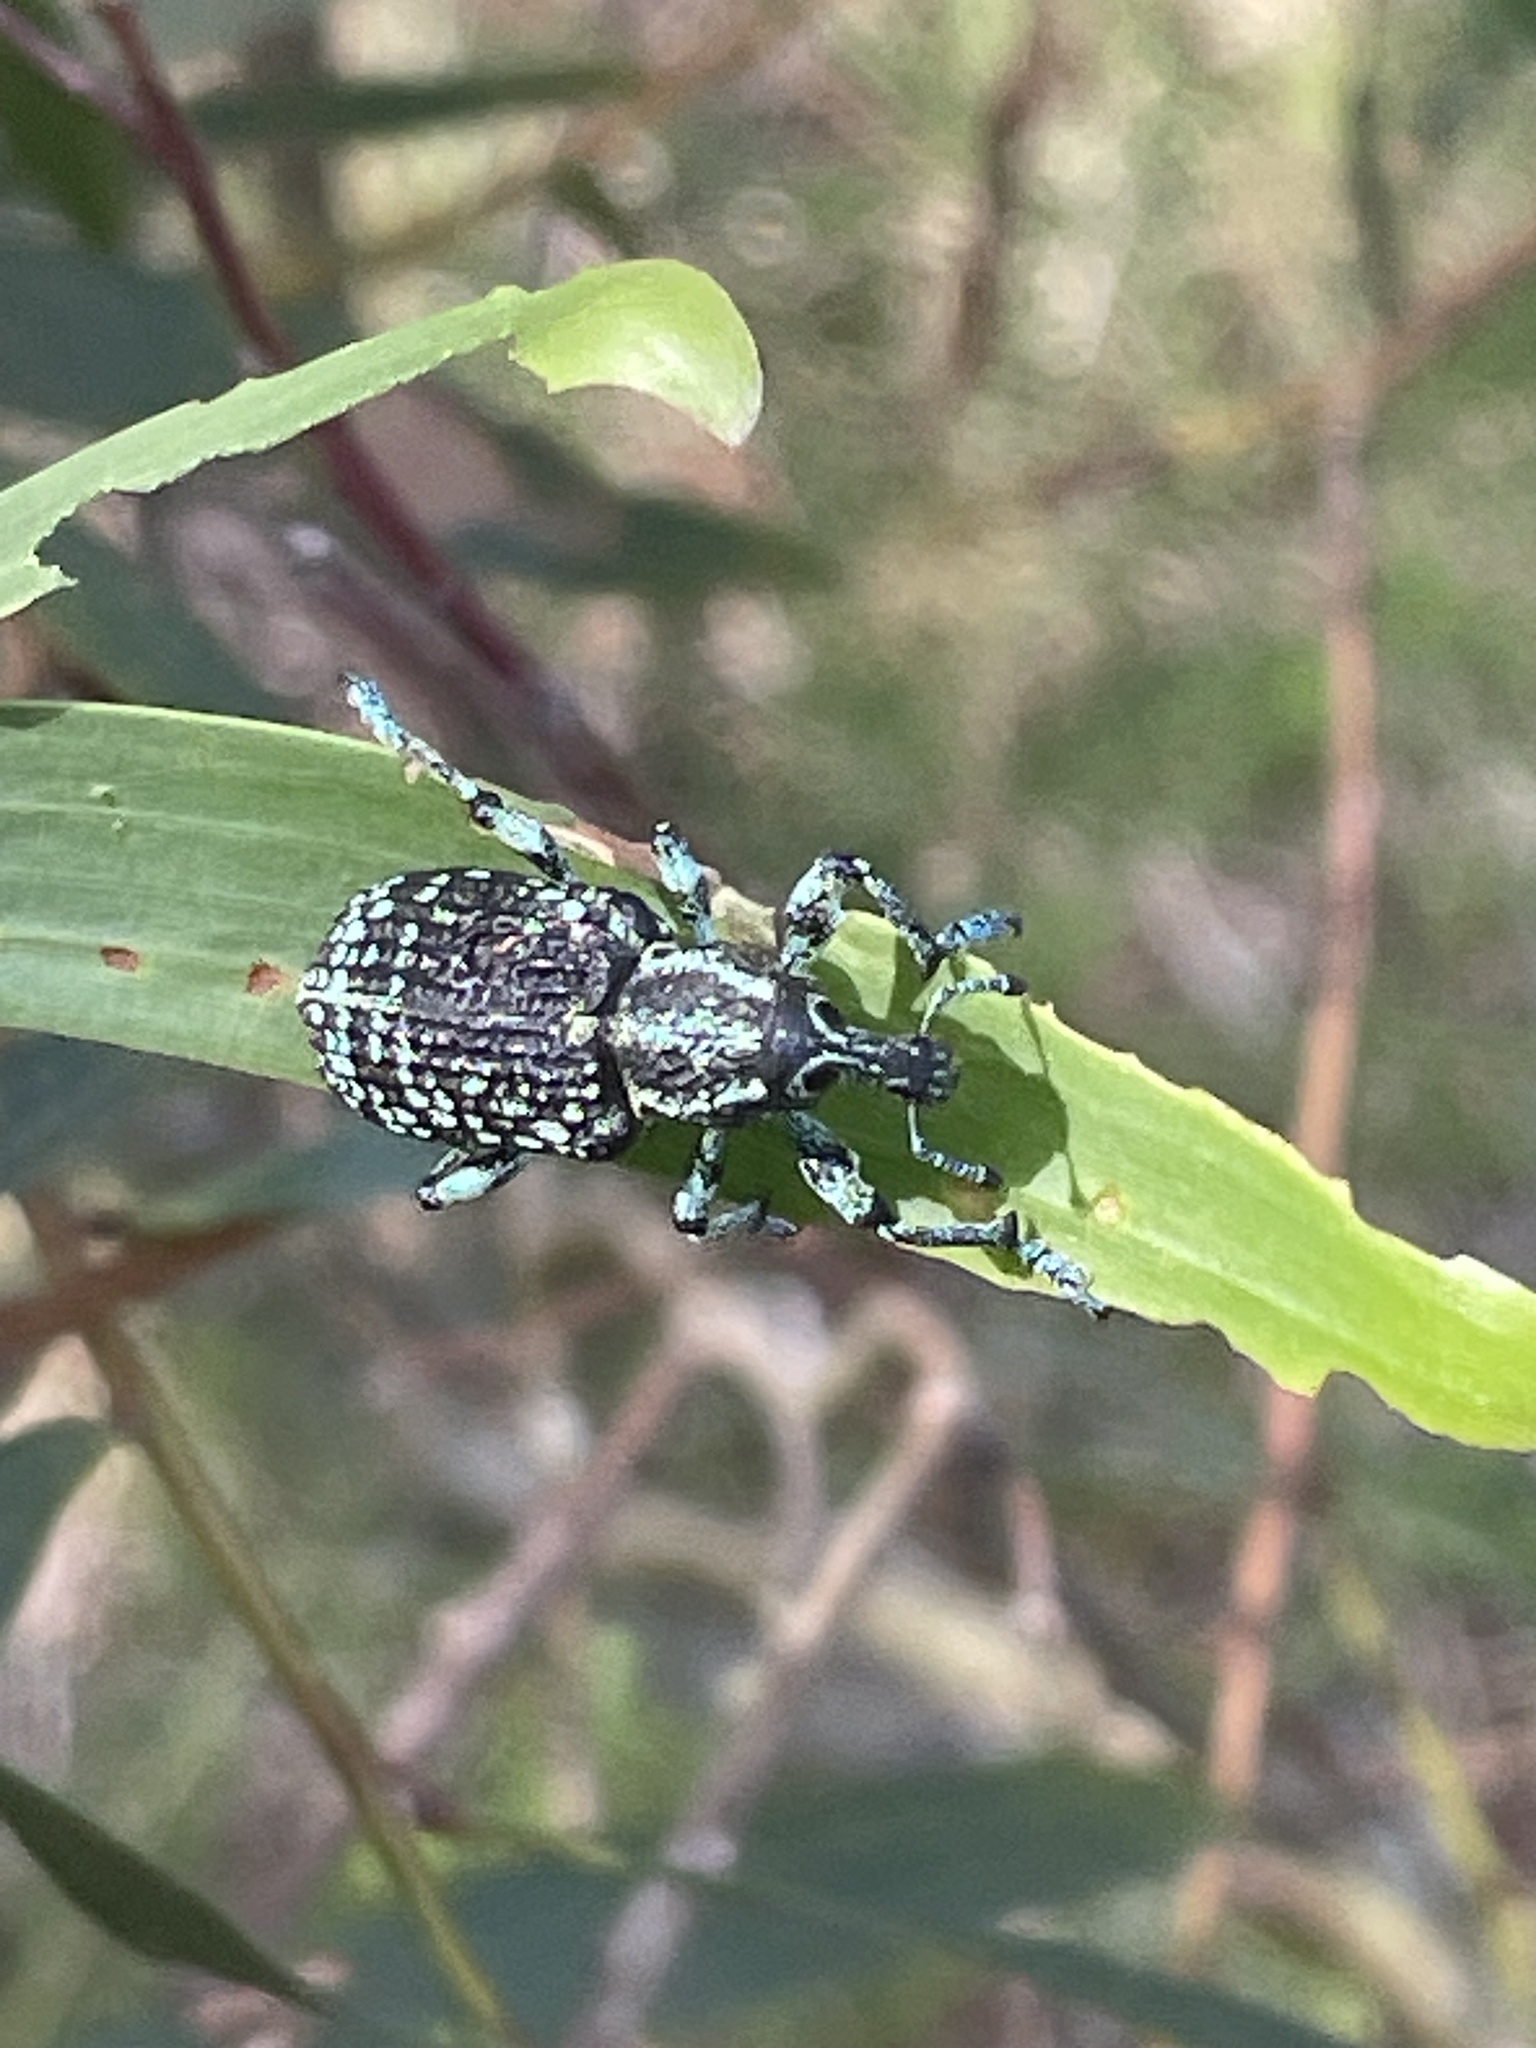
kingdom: Animalia
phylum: Arthropoda
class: Insecta
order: Coleoptera
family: Curculionidae
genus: Chrysolopus
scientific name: Chrysolopus spectabilis
